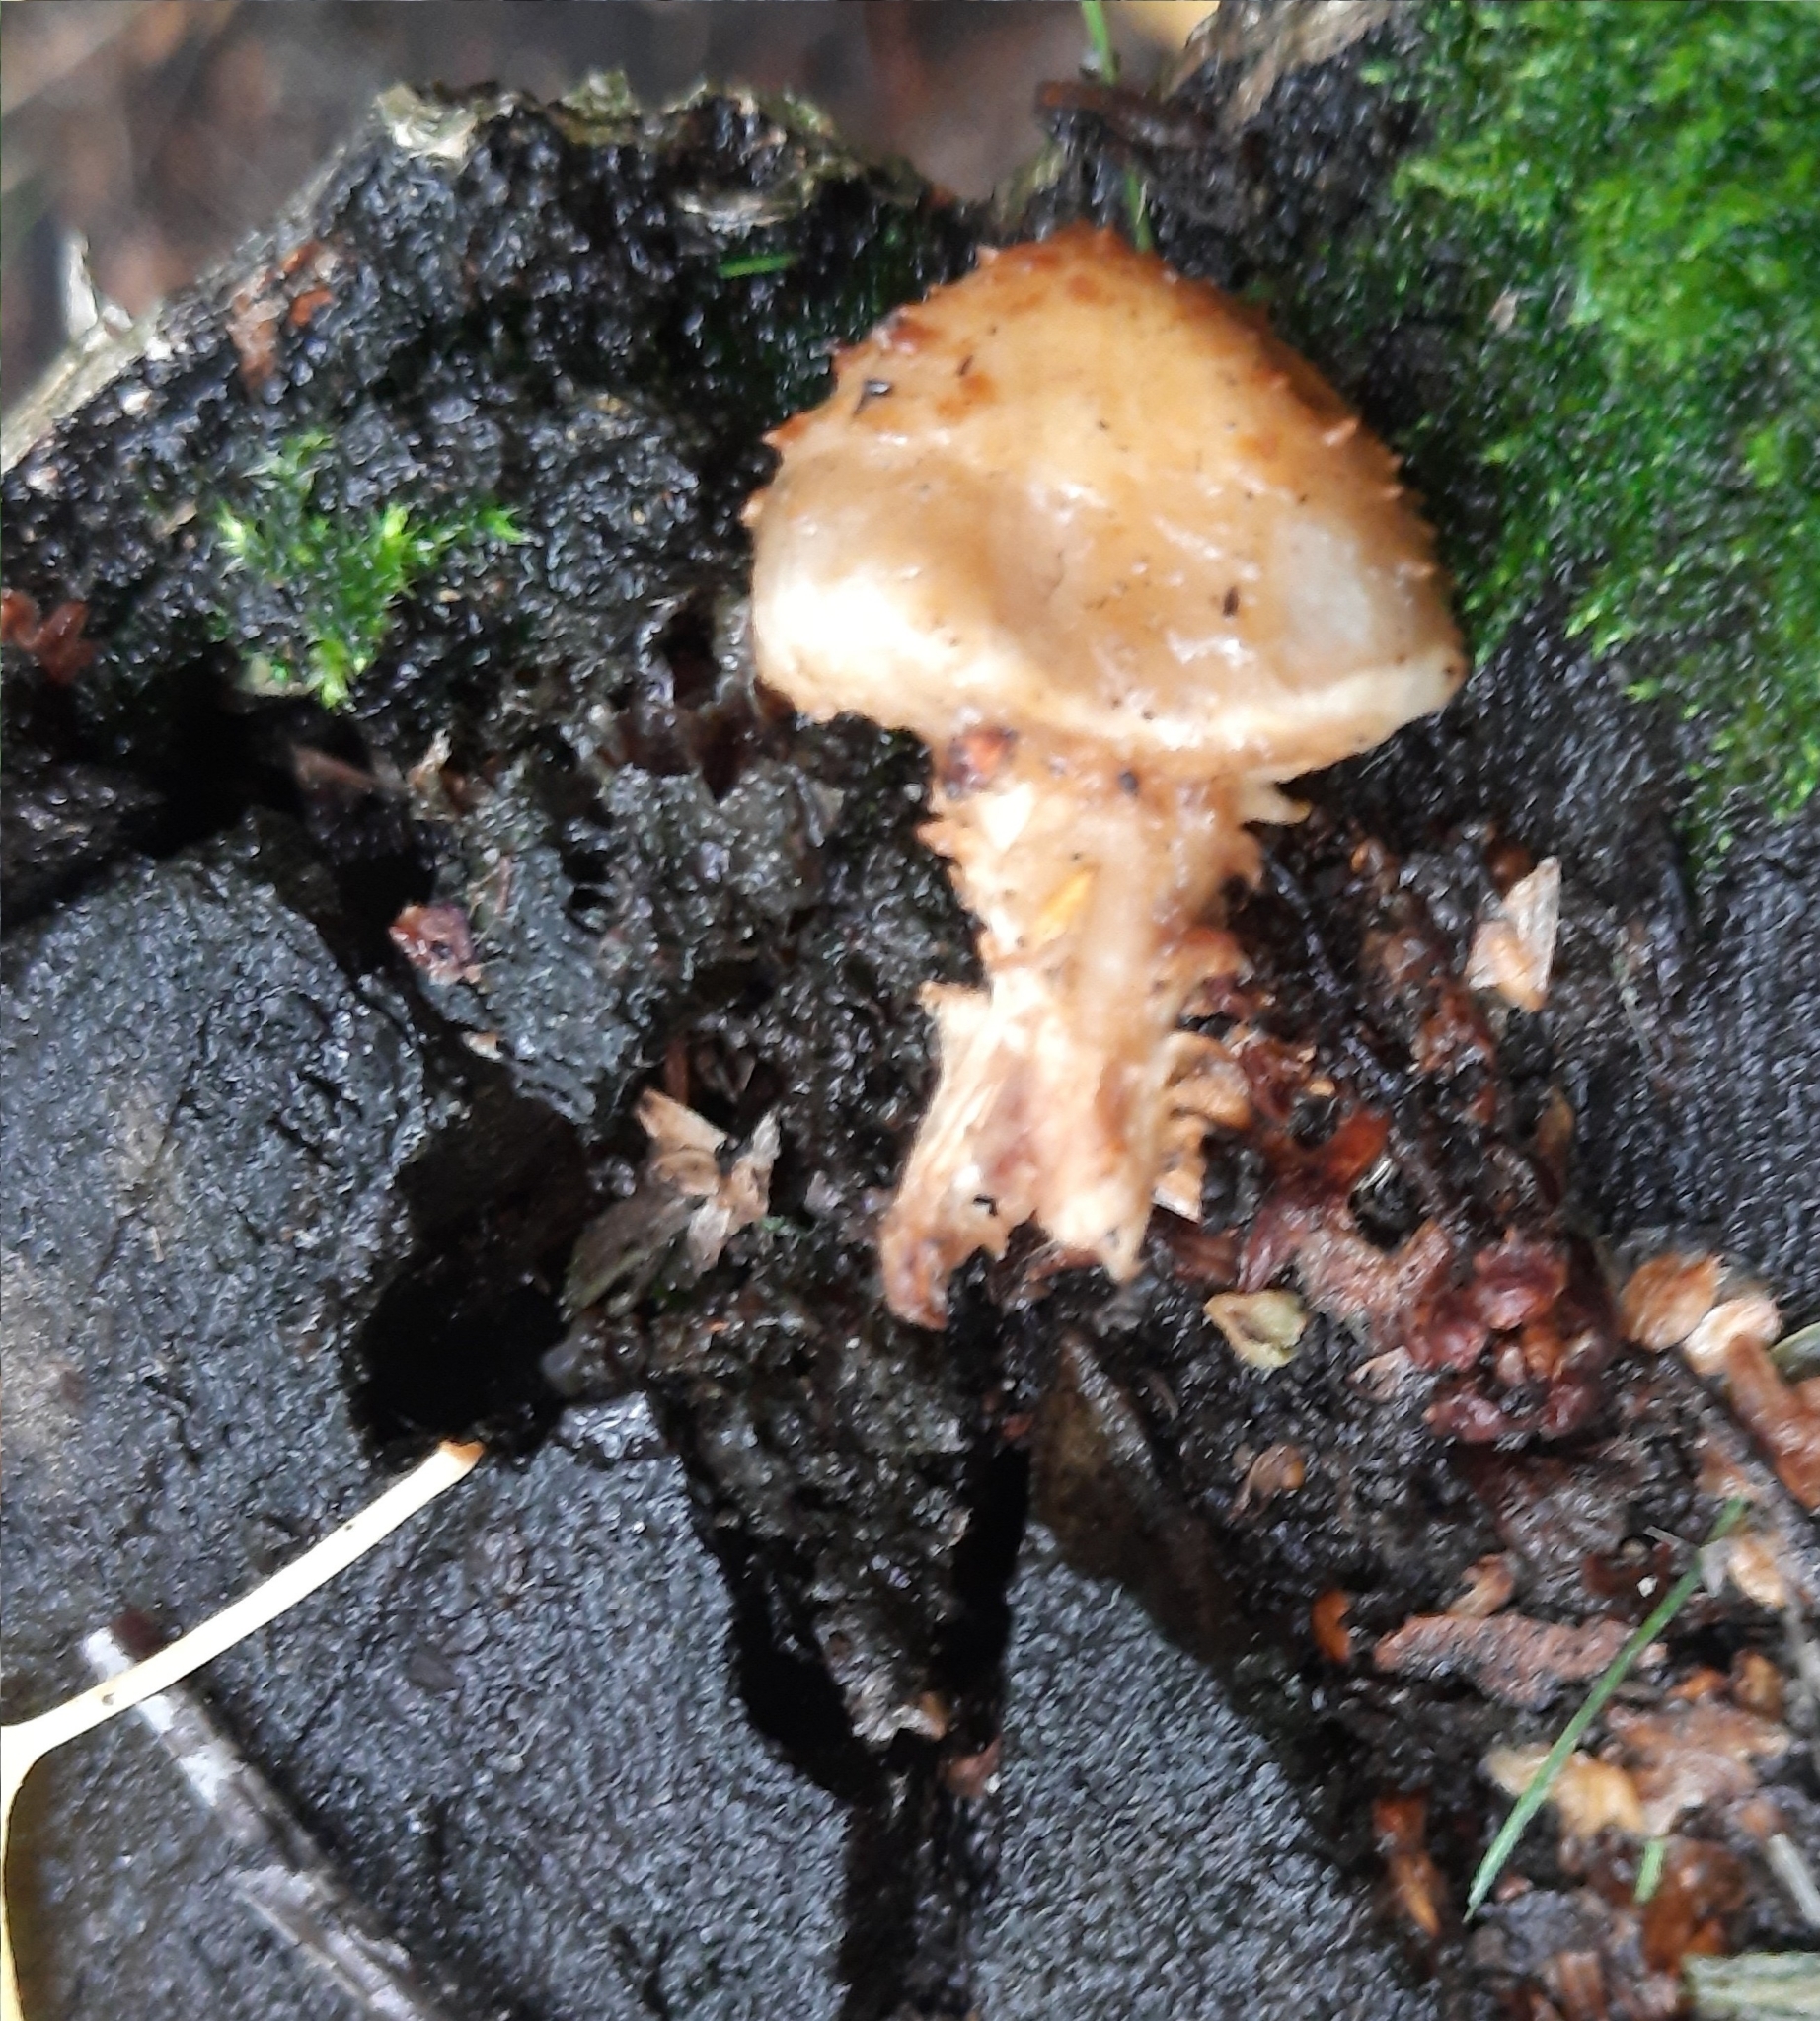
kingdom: Fungi
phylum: Basidiomycota
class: Agaricomycetes
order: Agaricales
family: Strophariaceae
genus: Pholiota
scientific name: Pholiota squarrosa
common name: Shaggy pholiota
